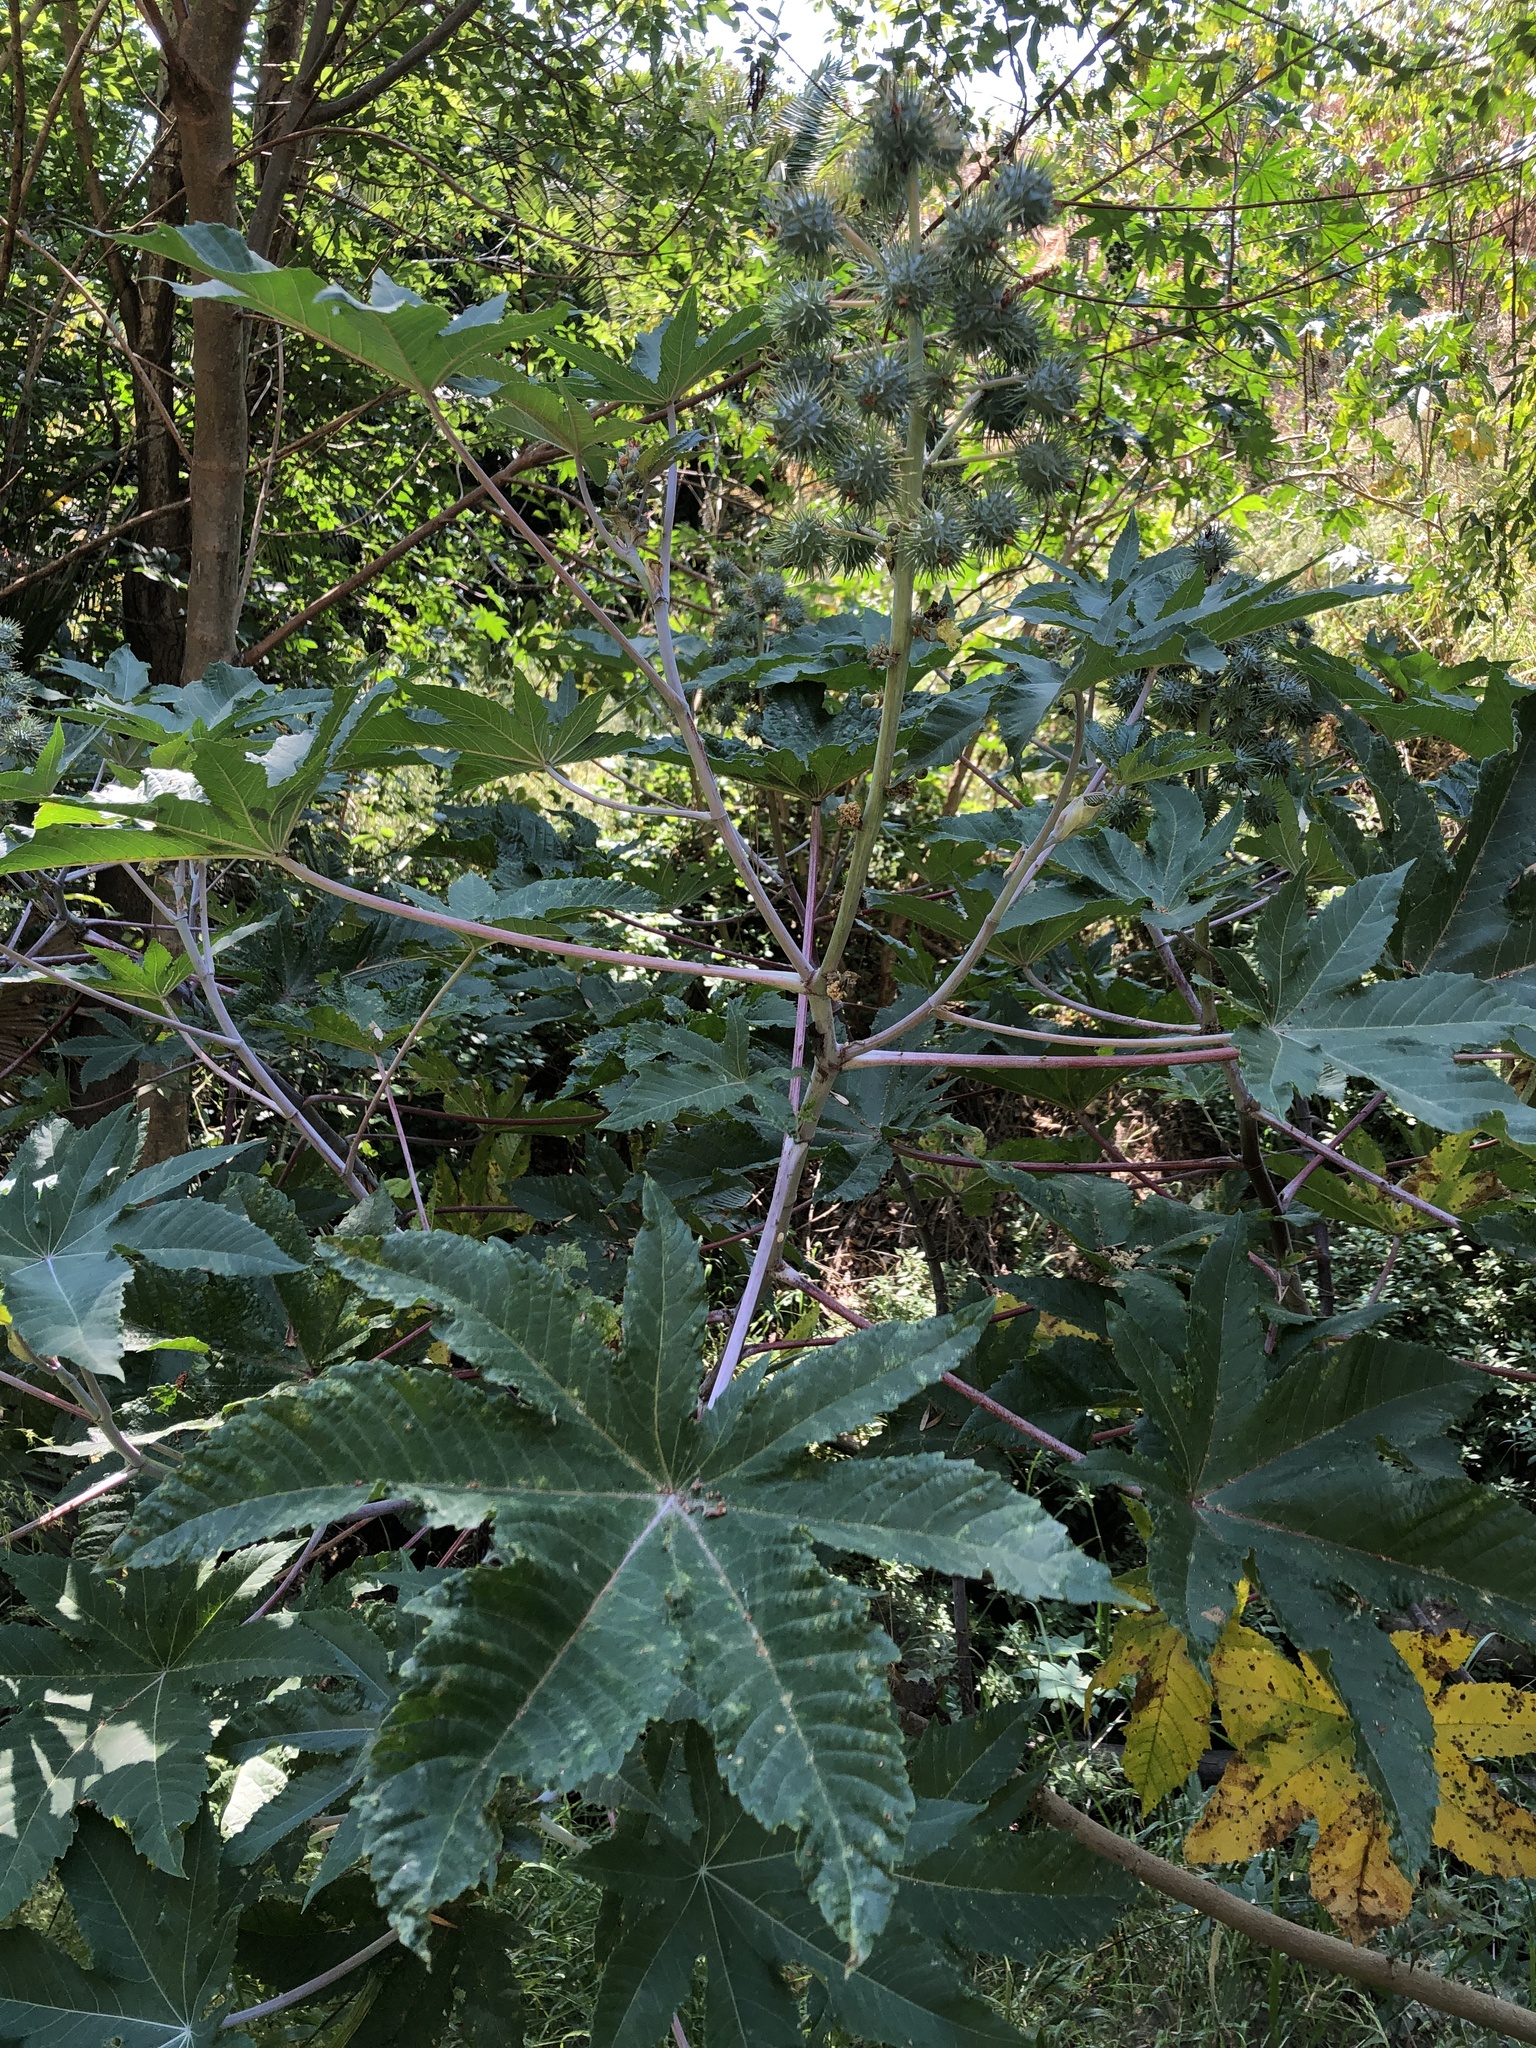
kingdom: Plantae
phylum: Tracheophyta
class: Magnoliopsida
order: Malpighiales
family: Euphorbiaceae
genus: Ricinus
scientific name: Ricinus communis
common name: Castor-oil-plant
